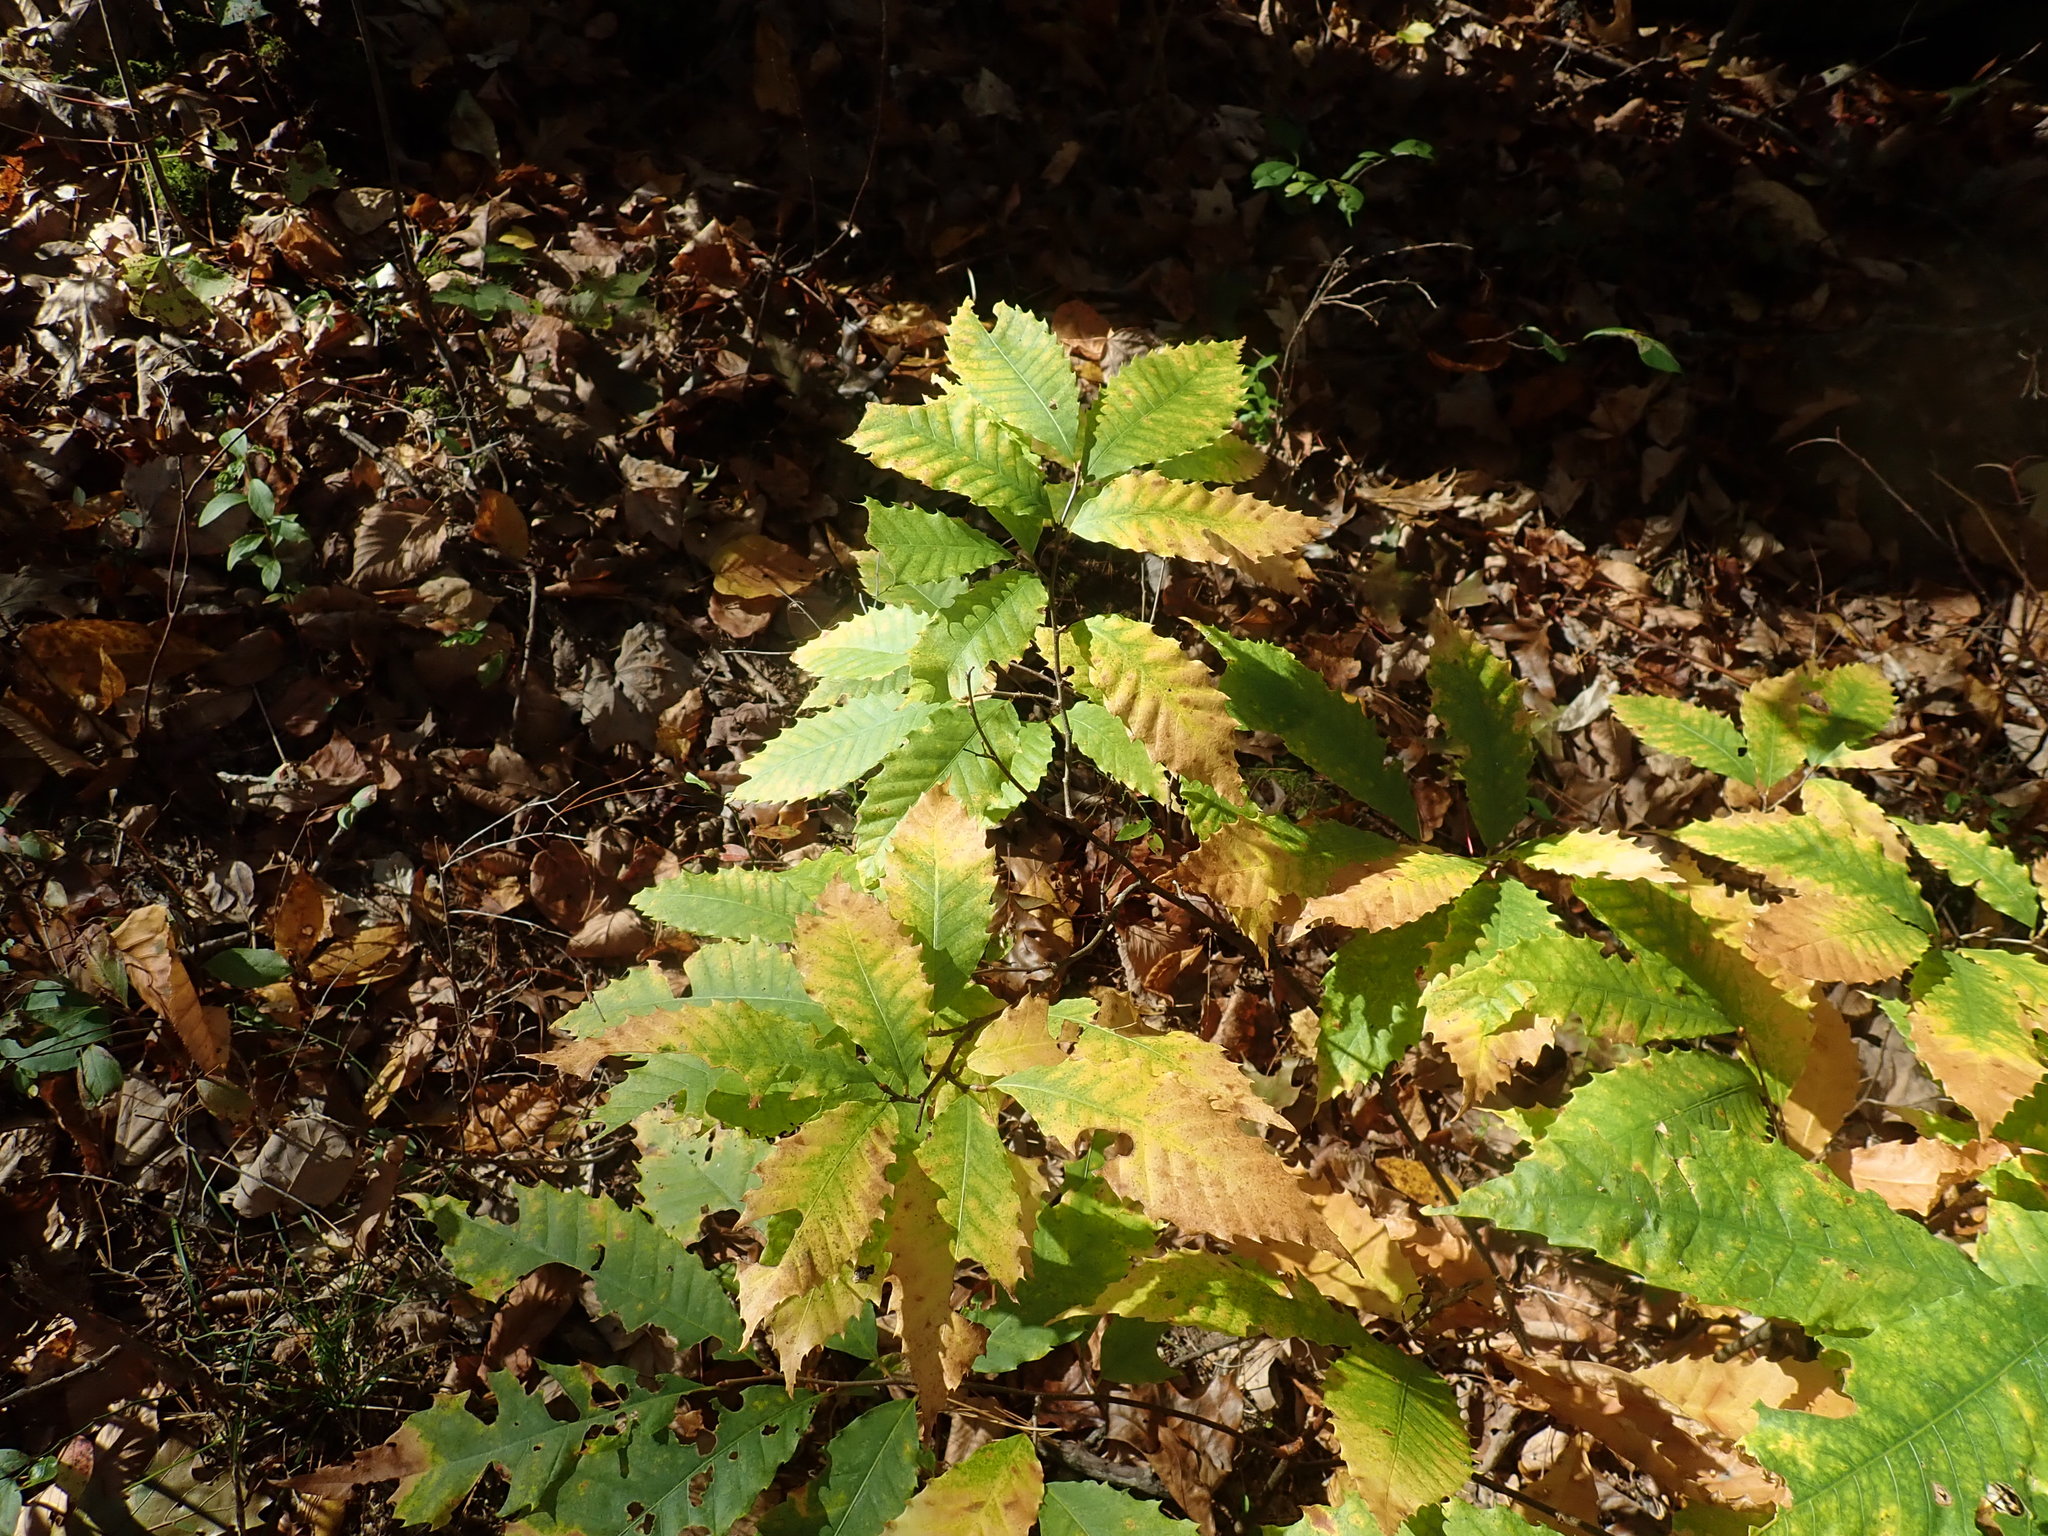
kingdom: Plantae
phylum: Tracheophyta
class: Magnoliopsida
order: Fagales
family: Fagaceae
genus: Castanea
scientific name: Castanea dentata
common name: American chestnut
